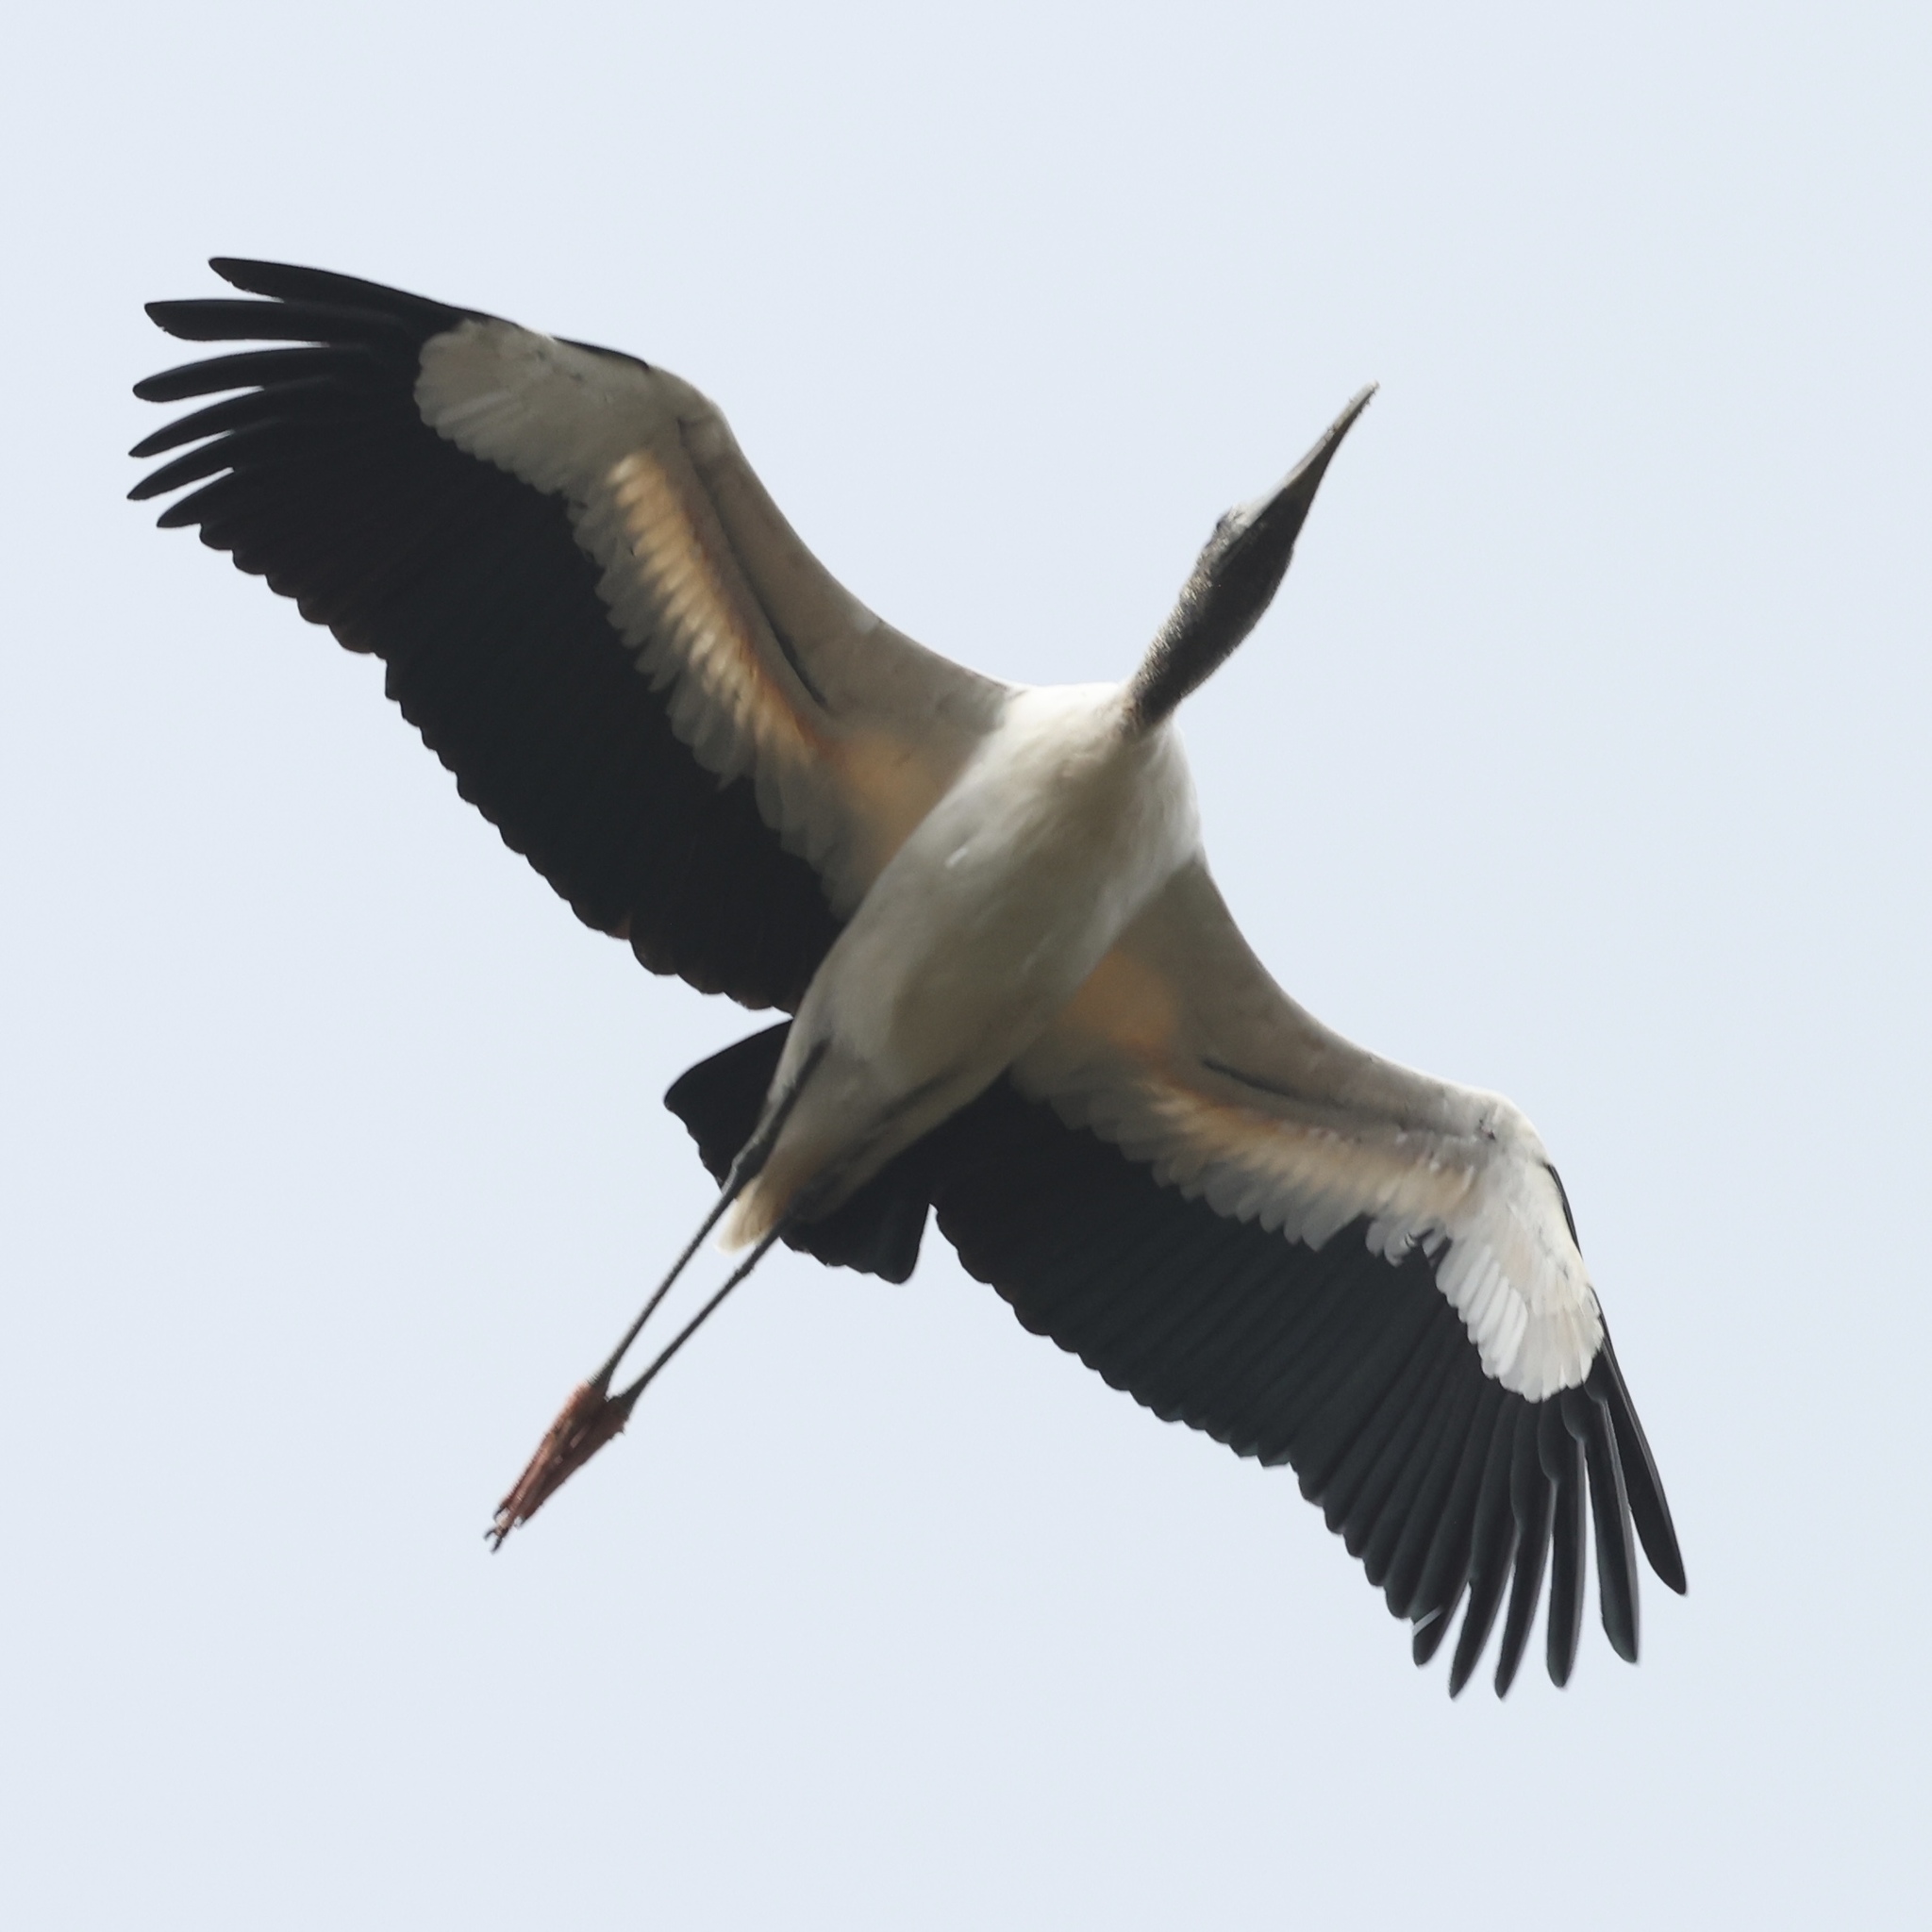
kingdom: Animalia
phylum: Chordata
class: Aves
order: Ciconiiformes
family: Ciconiidae
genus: Mycteria
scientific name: Mycteria americana
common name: Wood stork
